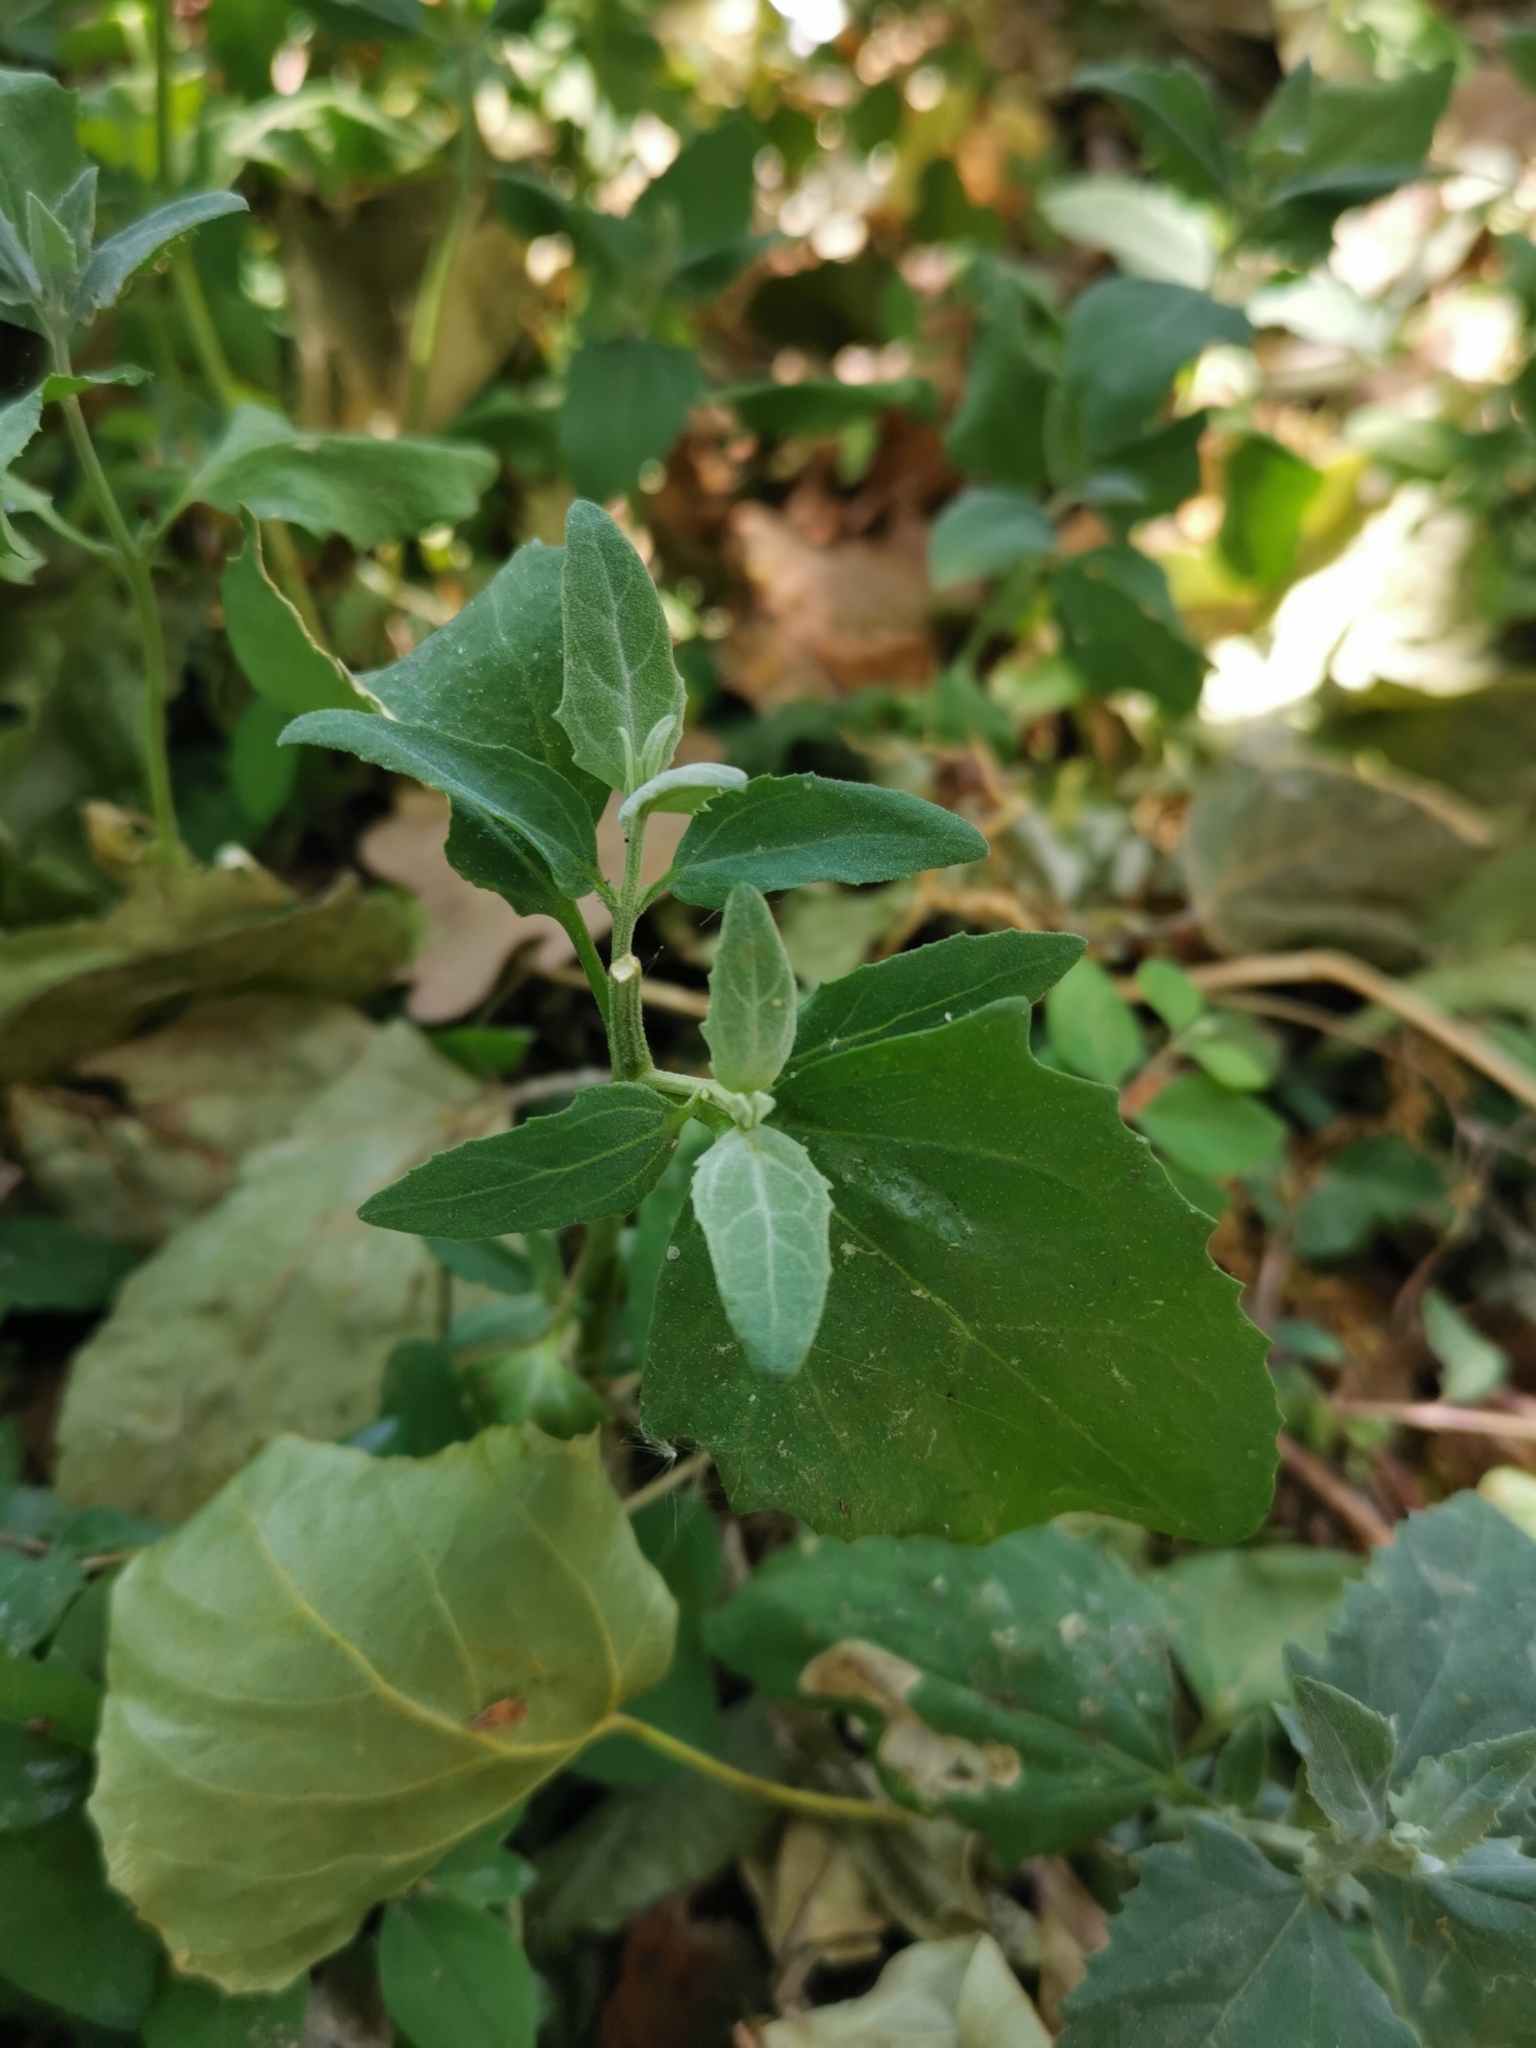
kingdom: Plantae
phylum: Tracheophyta
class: Magnoliopsida
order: Caryophyllales
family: Amaranthaceae
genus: Chenopodium
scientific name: Chenopodium album
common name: Fat-hen
